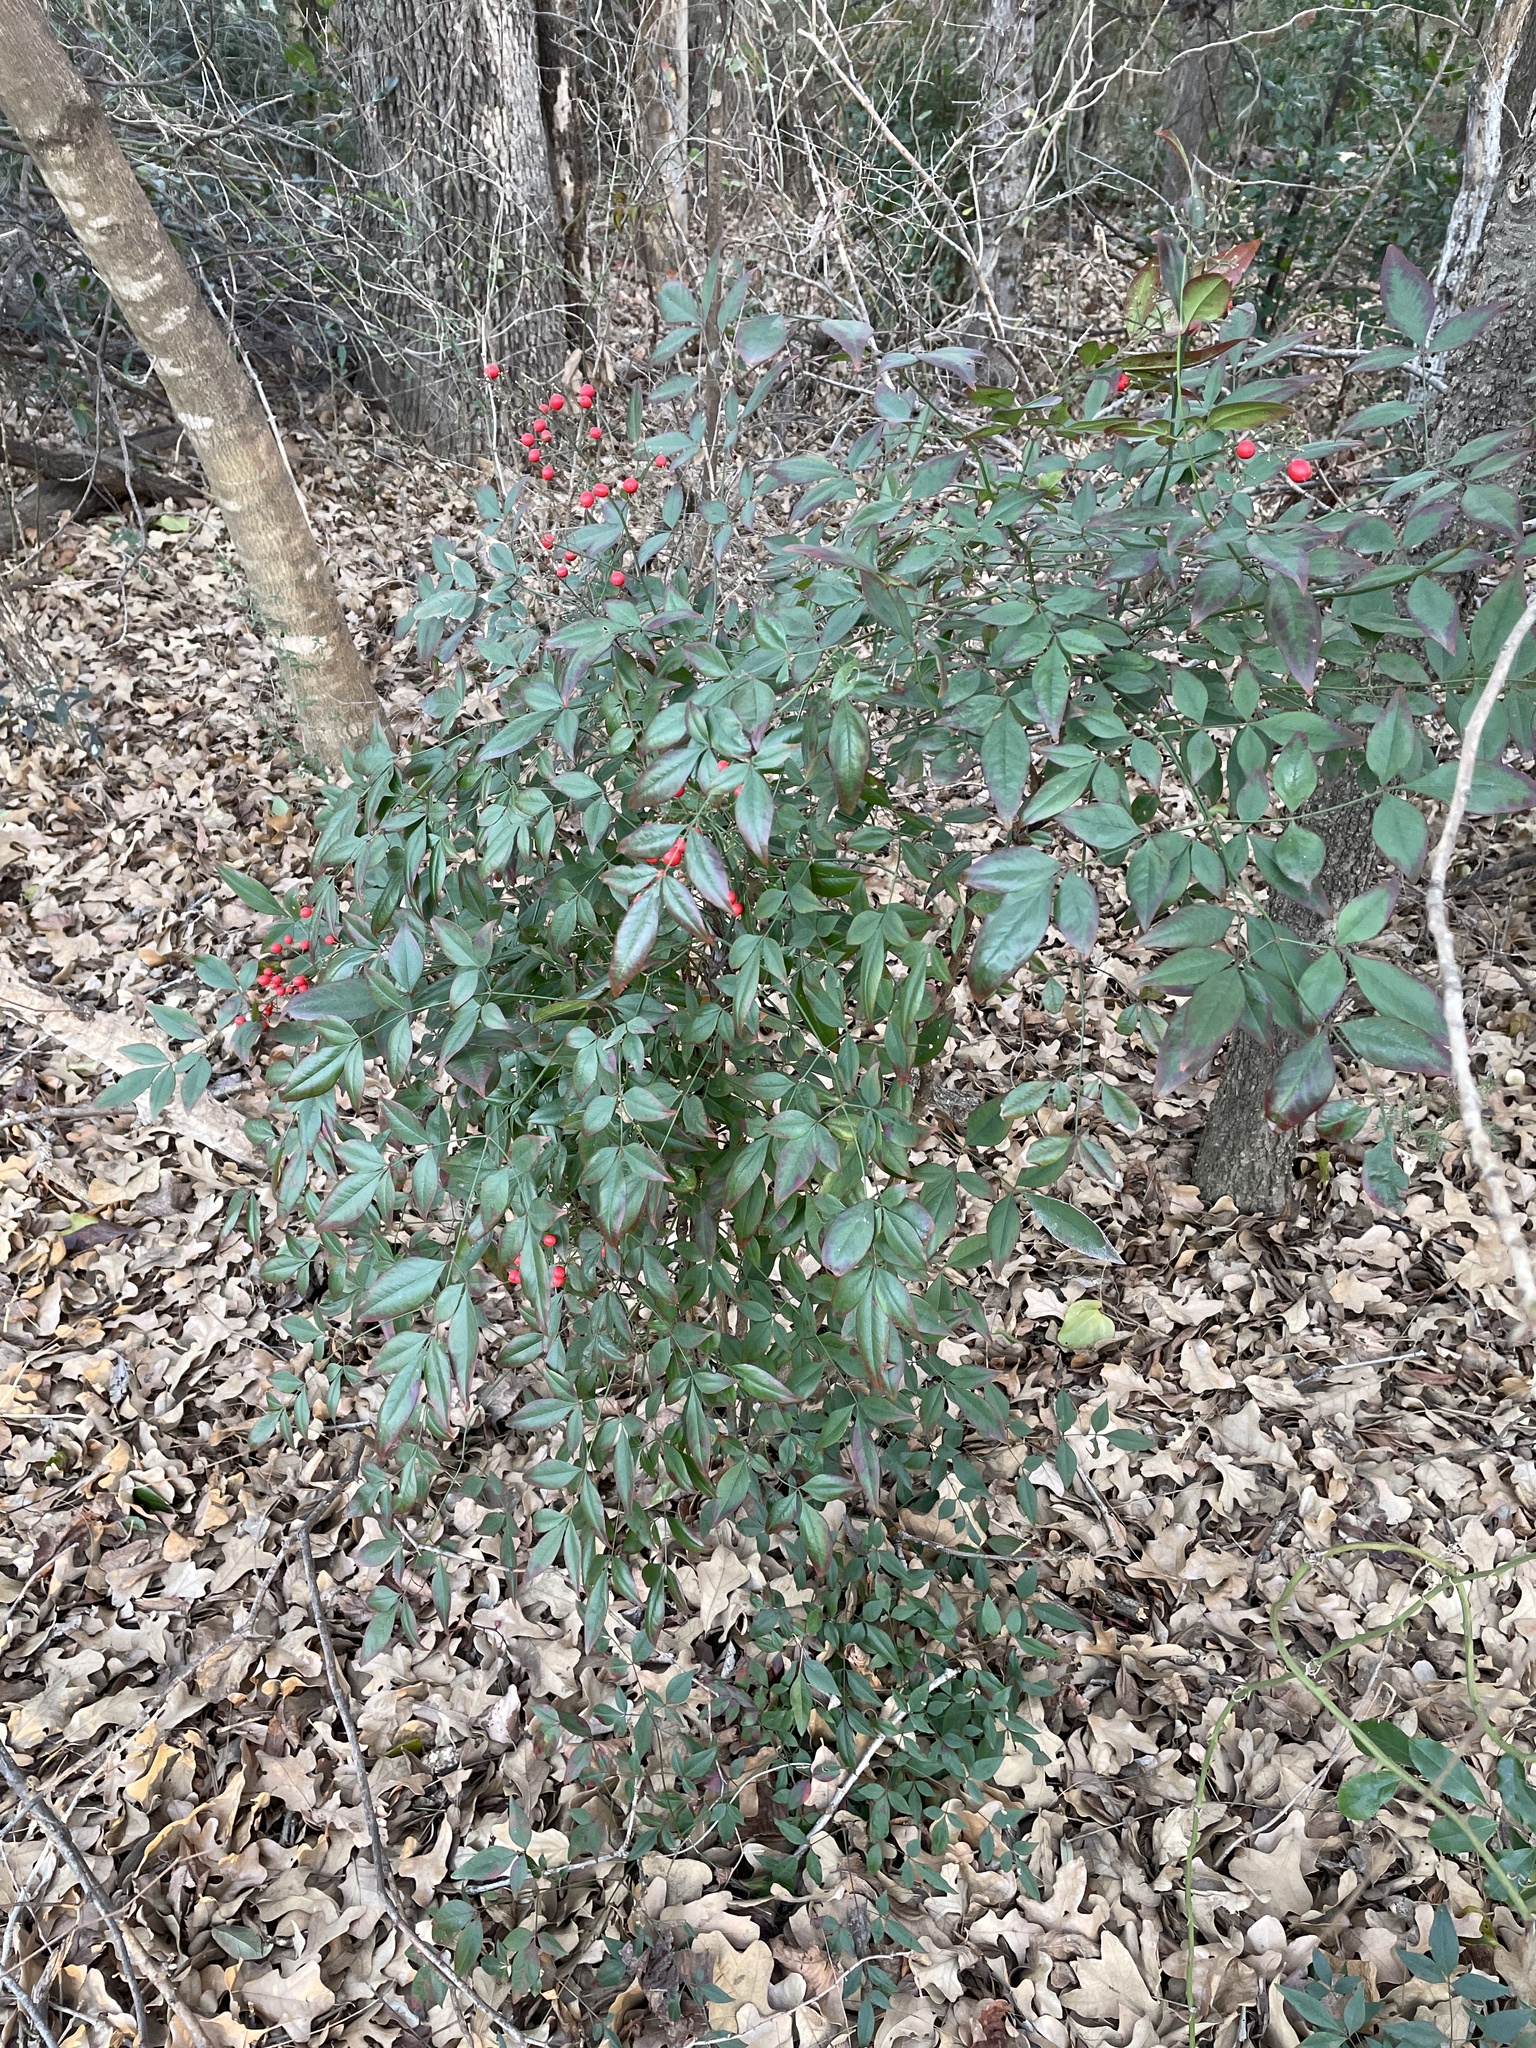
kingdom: Plantae
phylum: Tracheophyta
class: Magnoliopsida
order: Ranunculales
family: Berberidaceae
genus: Nandina
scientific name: Nandina domestica
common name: Sacred bamboo
